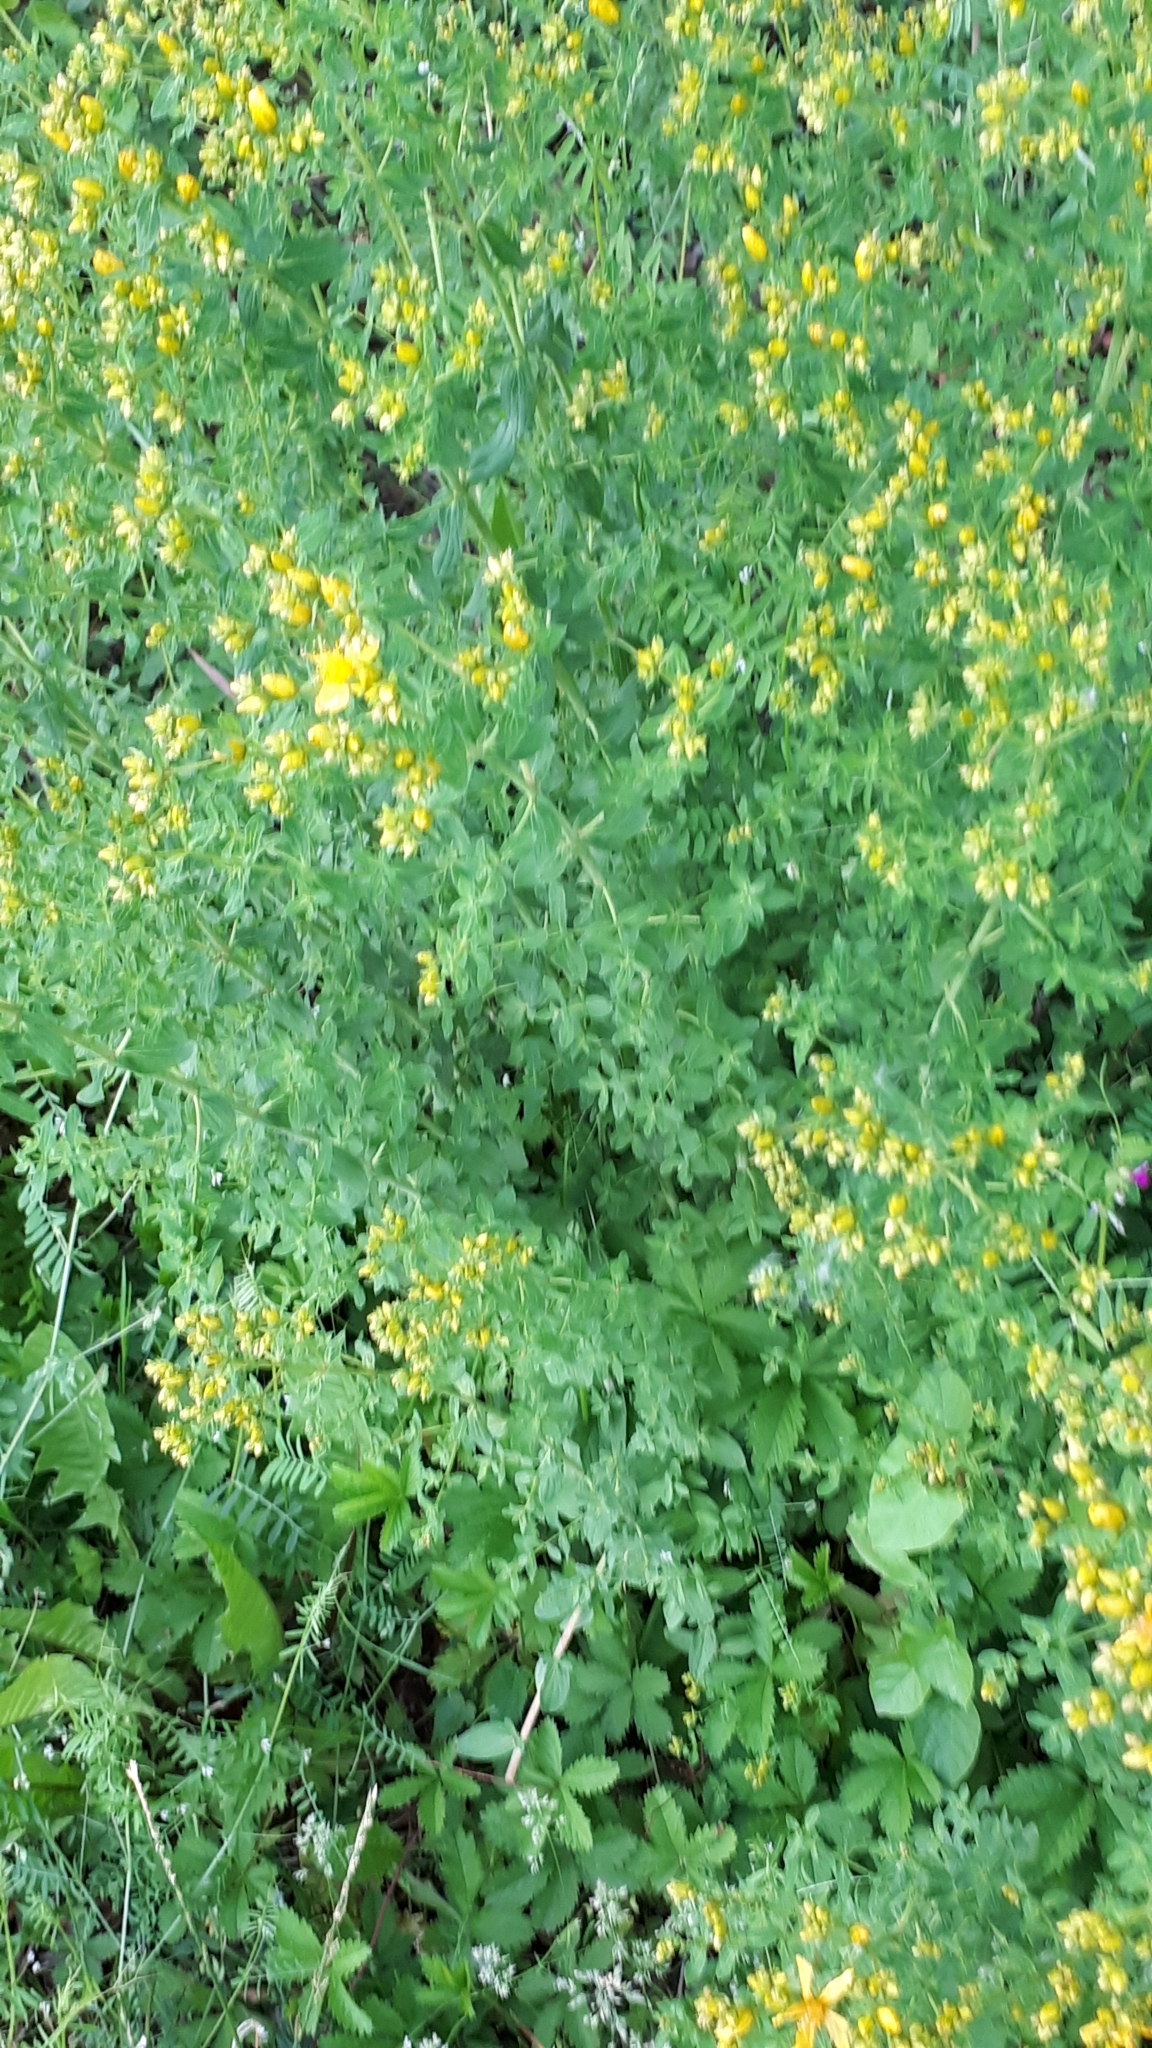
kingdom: Plantae
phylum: Tracheophyta
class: Magnoliopsida
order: Malpighiales
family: Hypericaceae
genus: Hypericum
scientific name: Hypericum desetangsii
